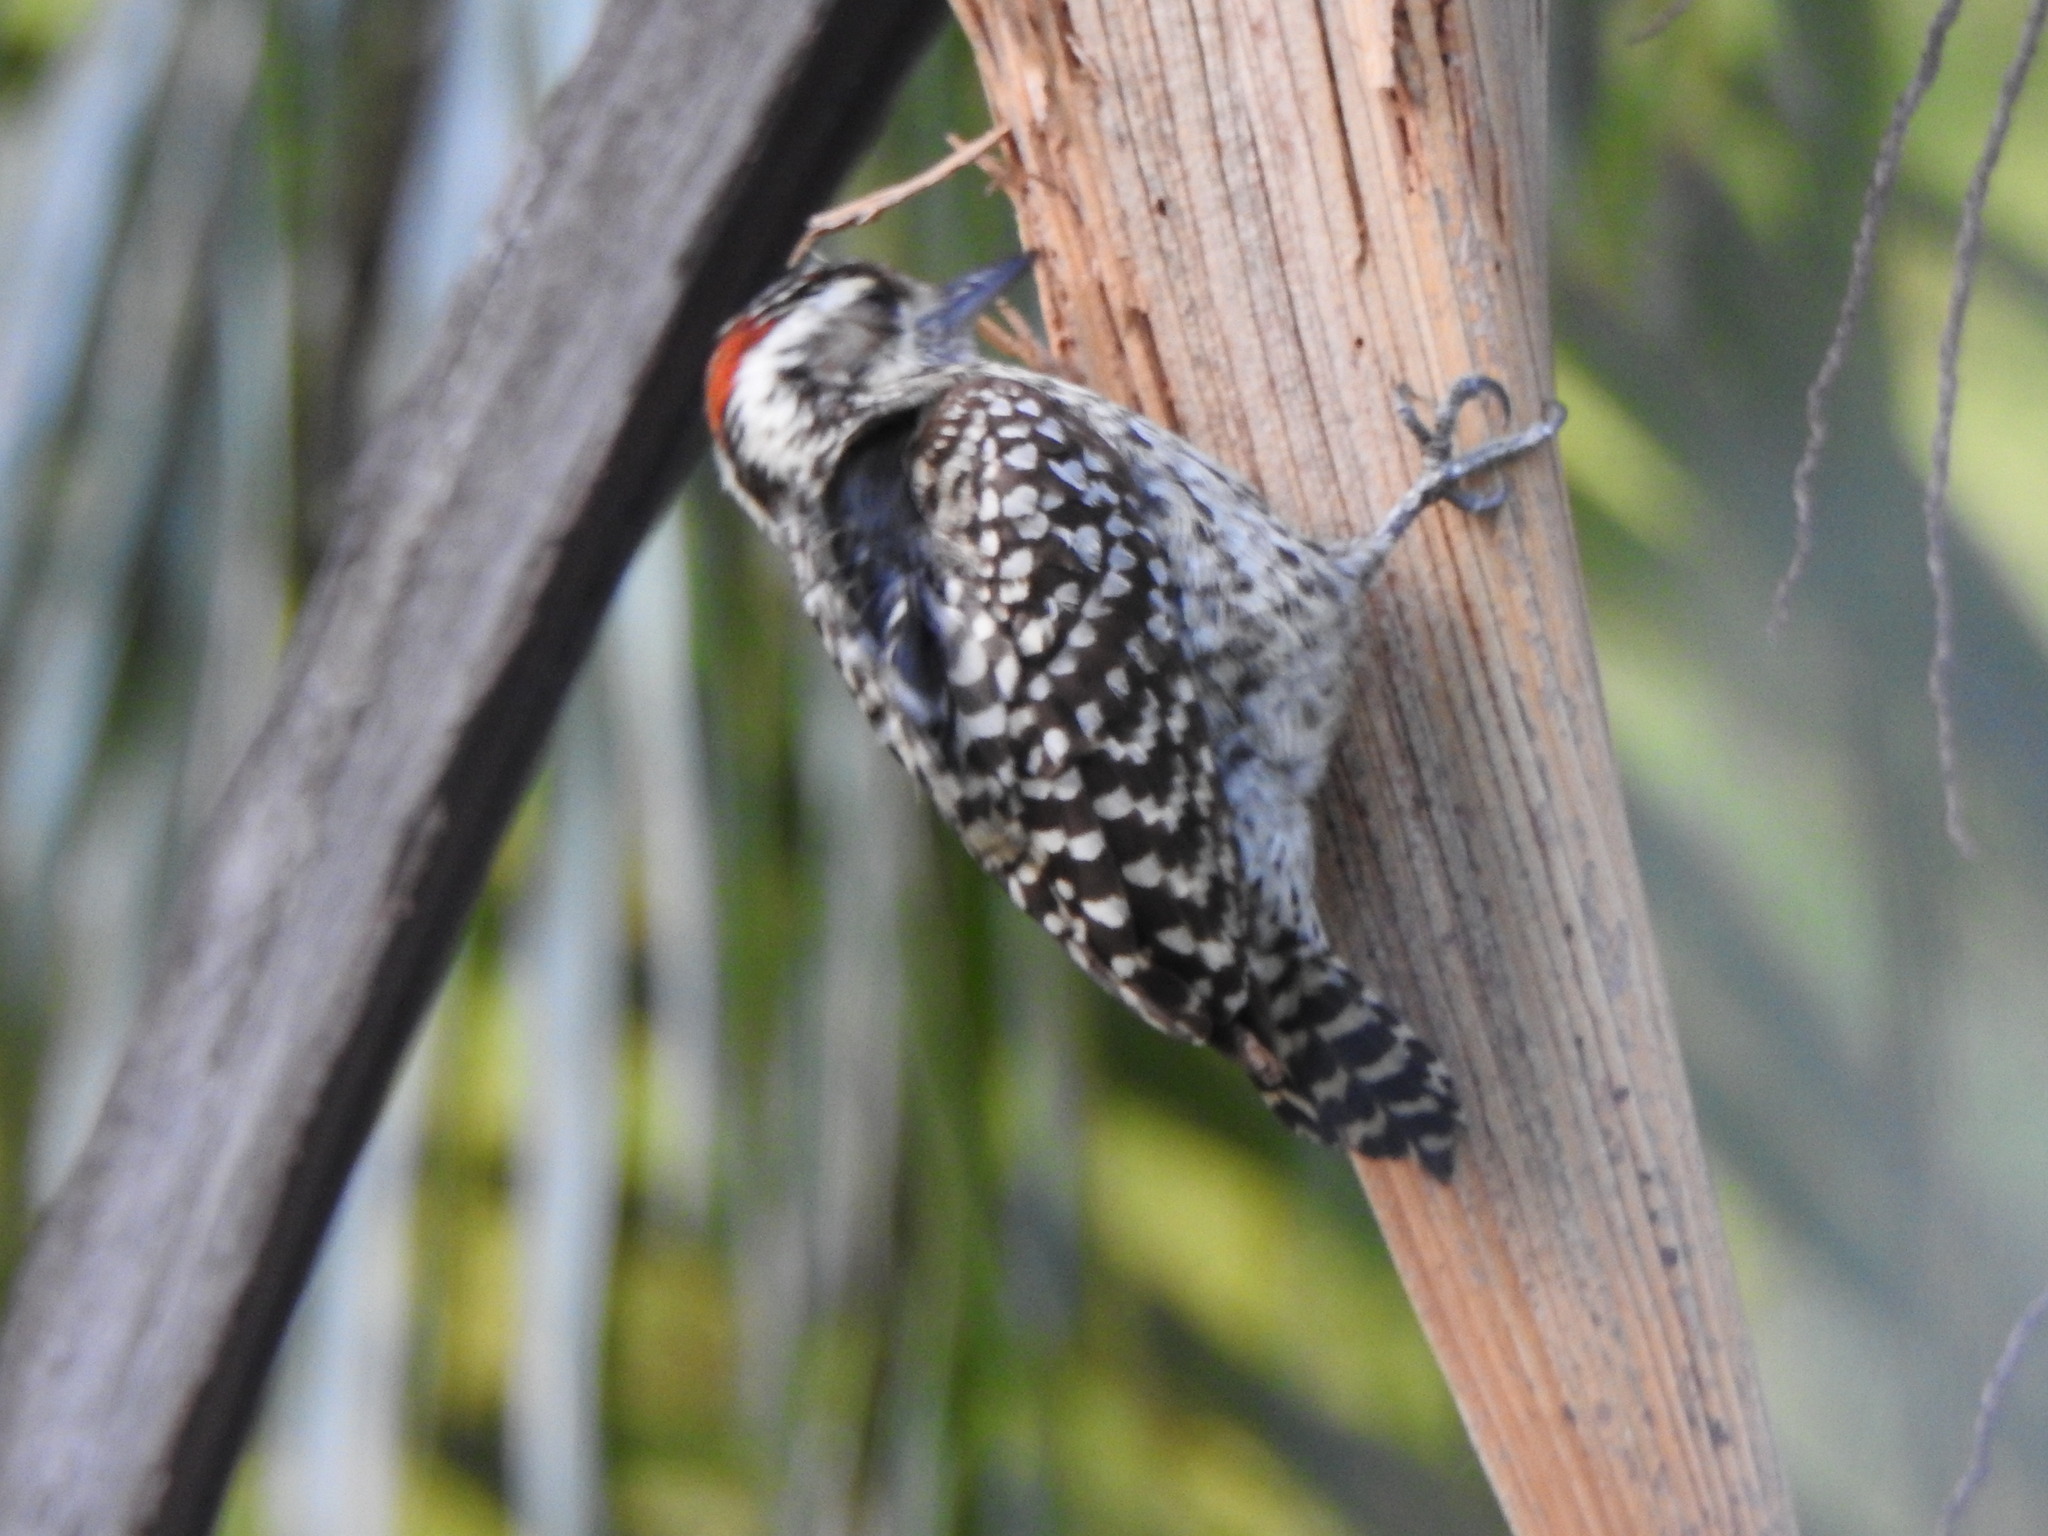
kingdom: Animalia
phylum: Chordata
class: Aves
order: Piciformes
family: Picidae
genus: Veniliornis
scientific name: Veniliornis mixtus
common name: Checkered woodpecker
